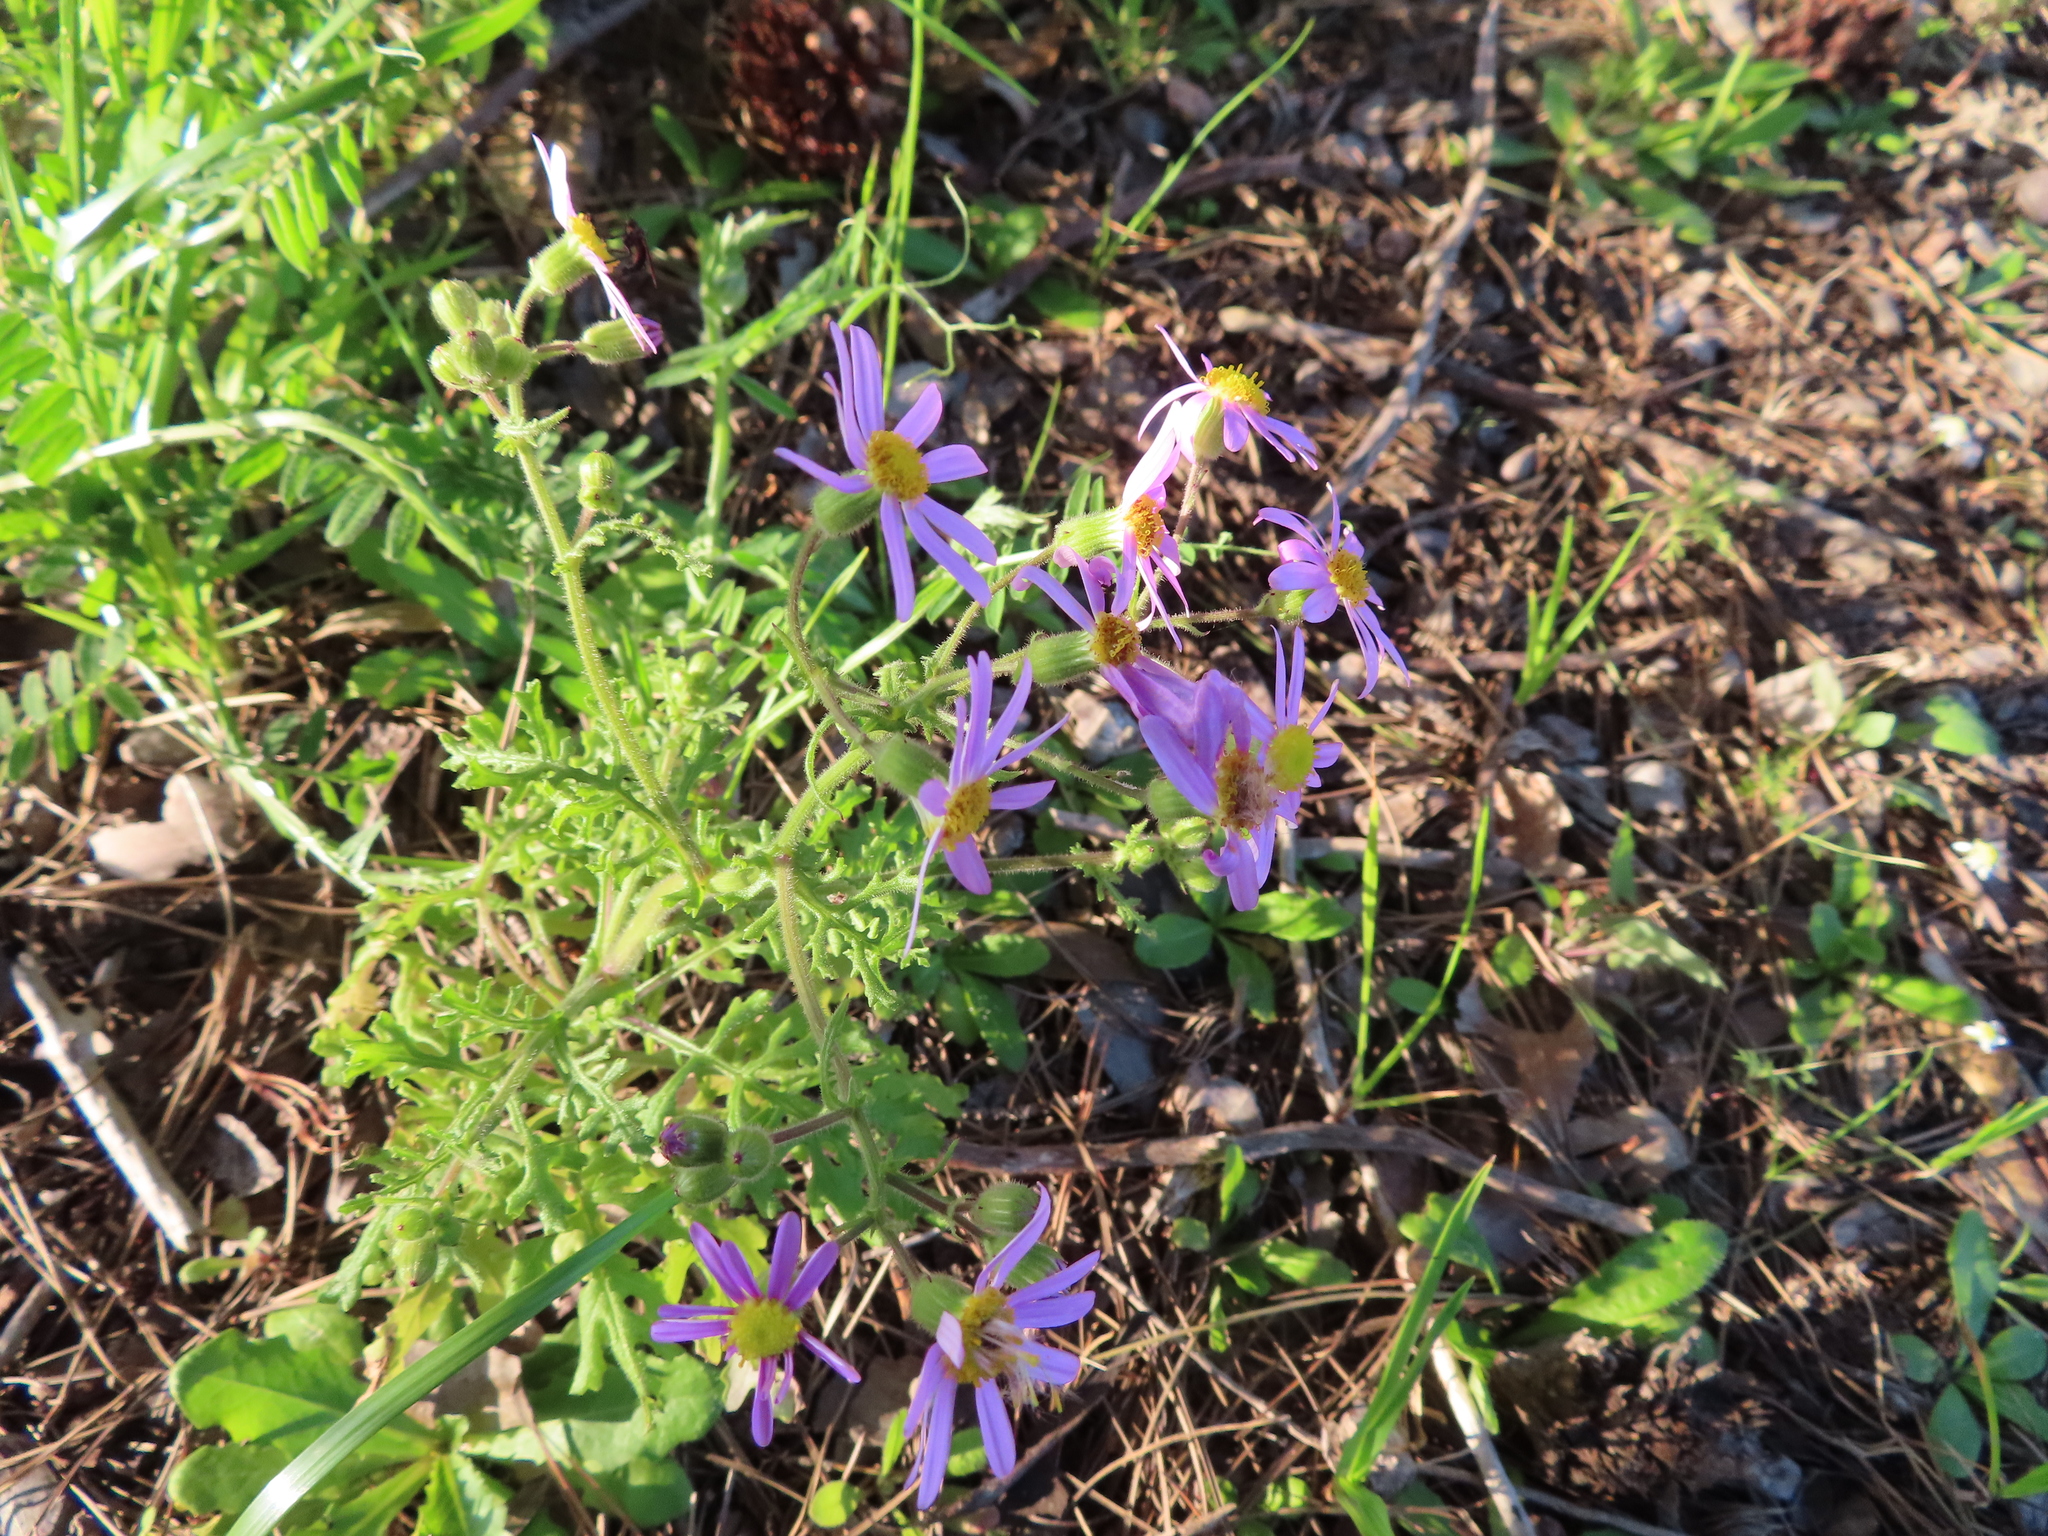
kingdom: Plantae
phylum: Tracheophyta
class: Magnoliopsida
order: Asterales
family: Asteraceae
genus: Senecio
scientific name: Senecio arenarius
